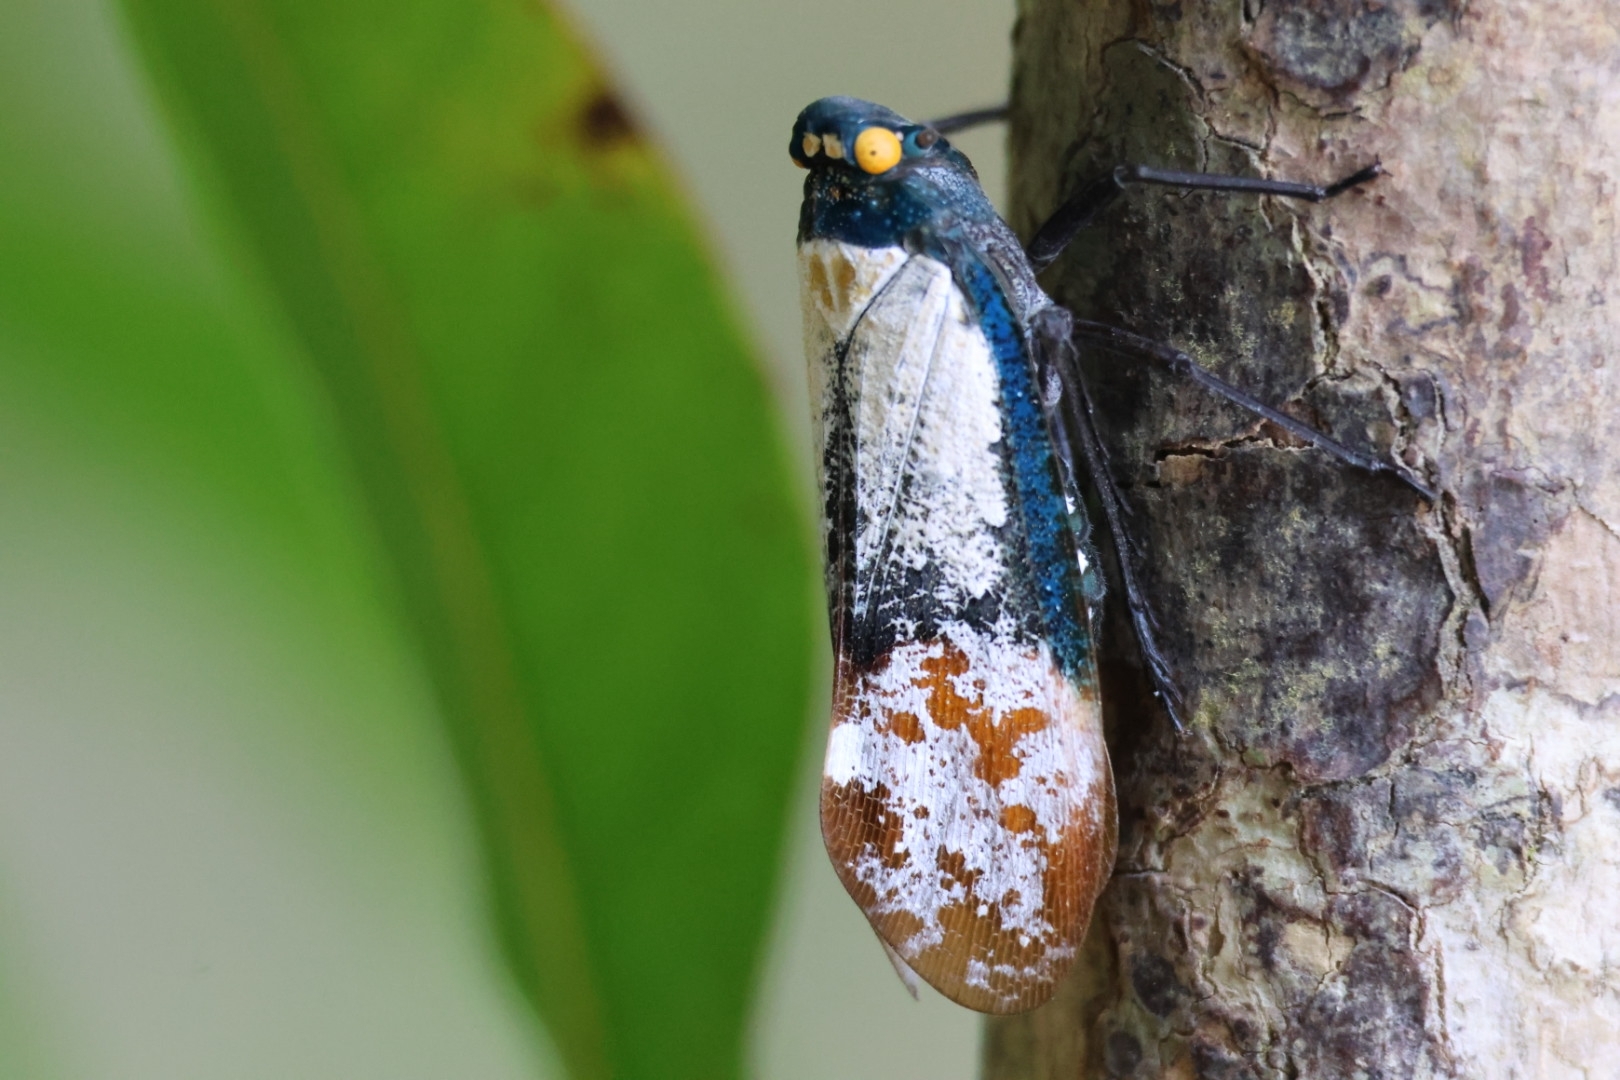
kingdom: Animalia
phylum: Arthropoda
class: Insecta
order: Hemiptera
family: Fulgoridae
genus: Penthicodes
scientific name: Penthicodes farinosa
